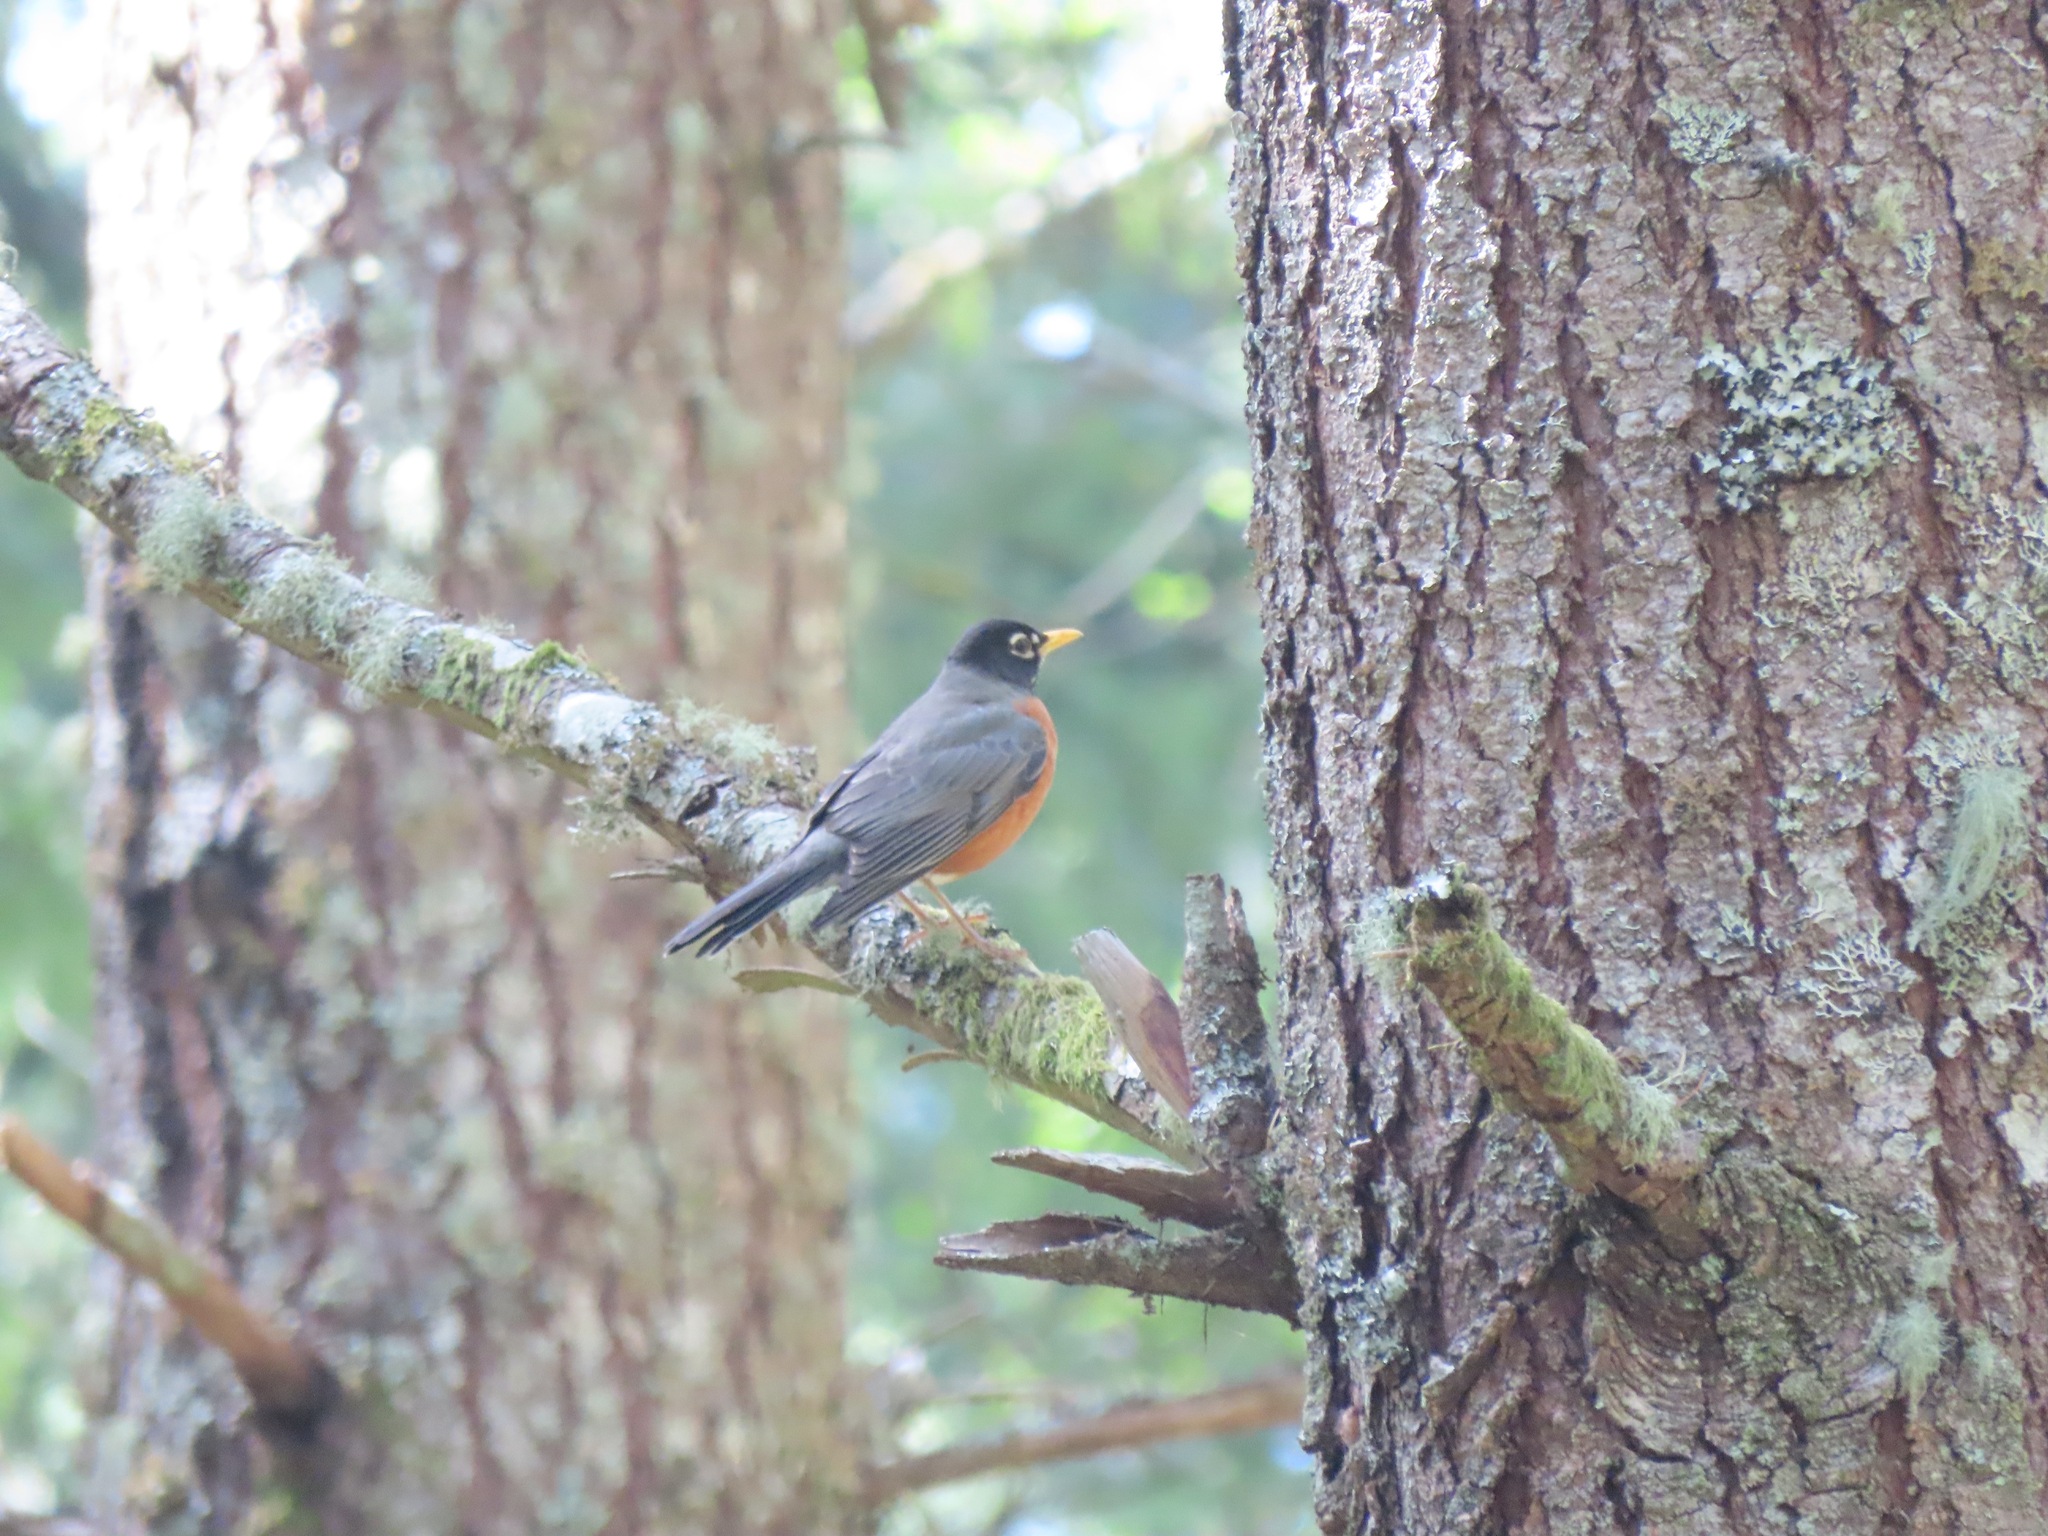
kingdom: Animalia
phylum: Chordata
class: Aves
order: Passeriformes
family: Turdidae
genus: Turdus
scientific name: Turdus migratorius
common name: American robin
